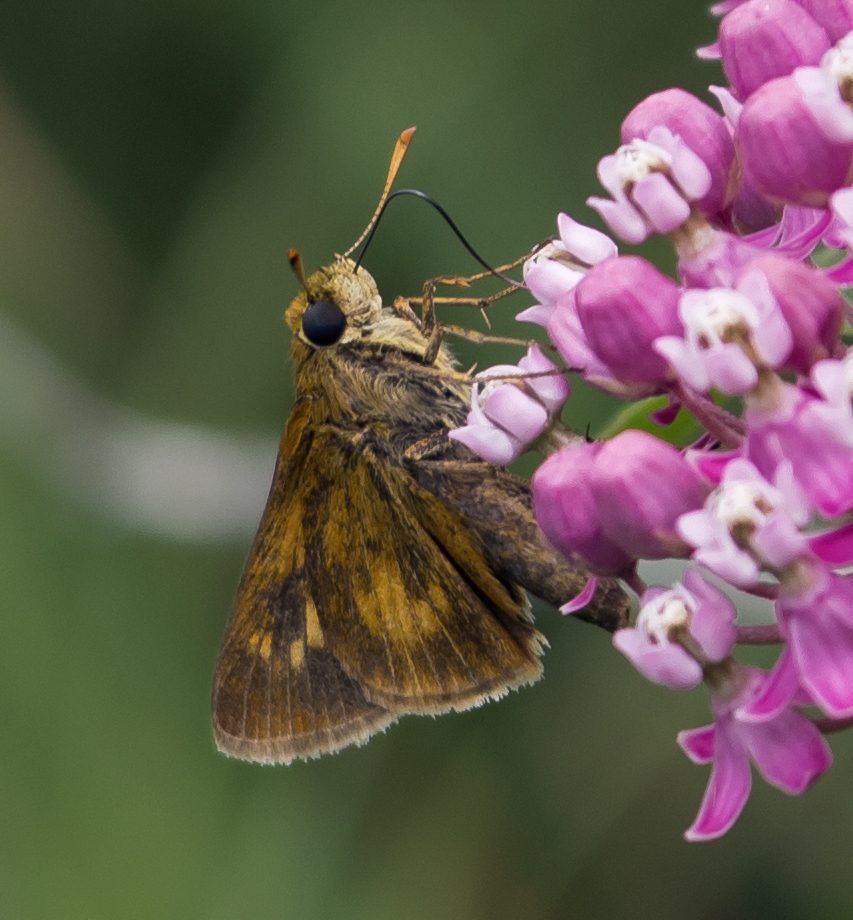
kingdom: Animalia
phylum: Arthropoda
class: Insecta
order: Lepidoptera
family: Hesperiidae
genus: Euphyes
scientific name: Euphyes conspicua
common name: Black dash
